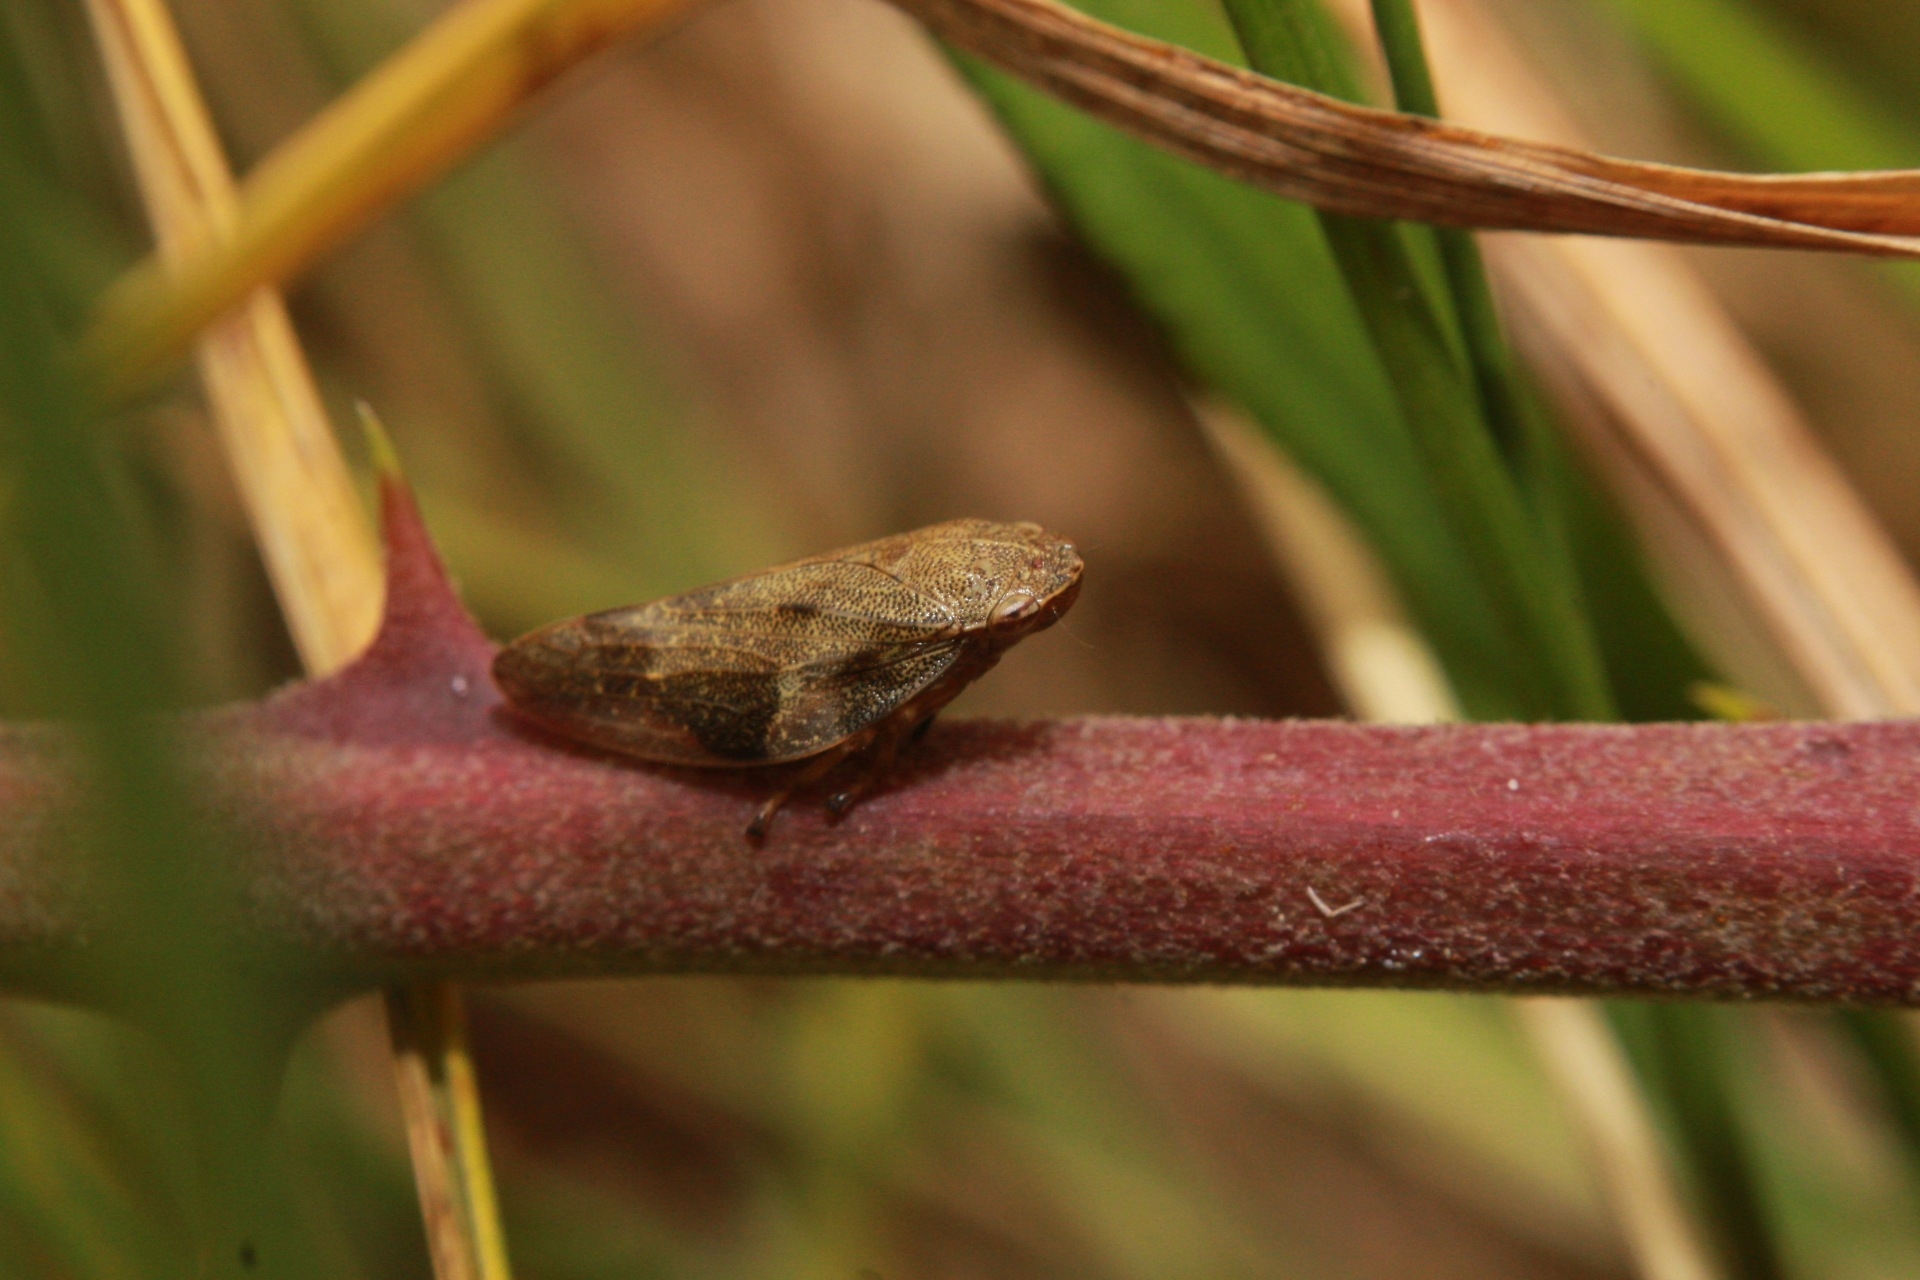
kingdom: Animalia
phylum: Arthropoda
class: Insecta
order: Hemiptera
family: Aphrophoridae
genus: Aphrophora
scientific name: Aphrophora alni
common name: European alder spittlebug
